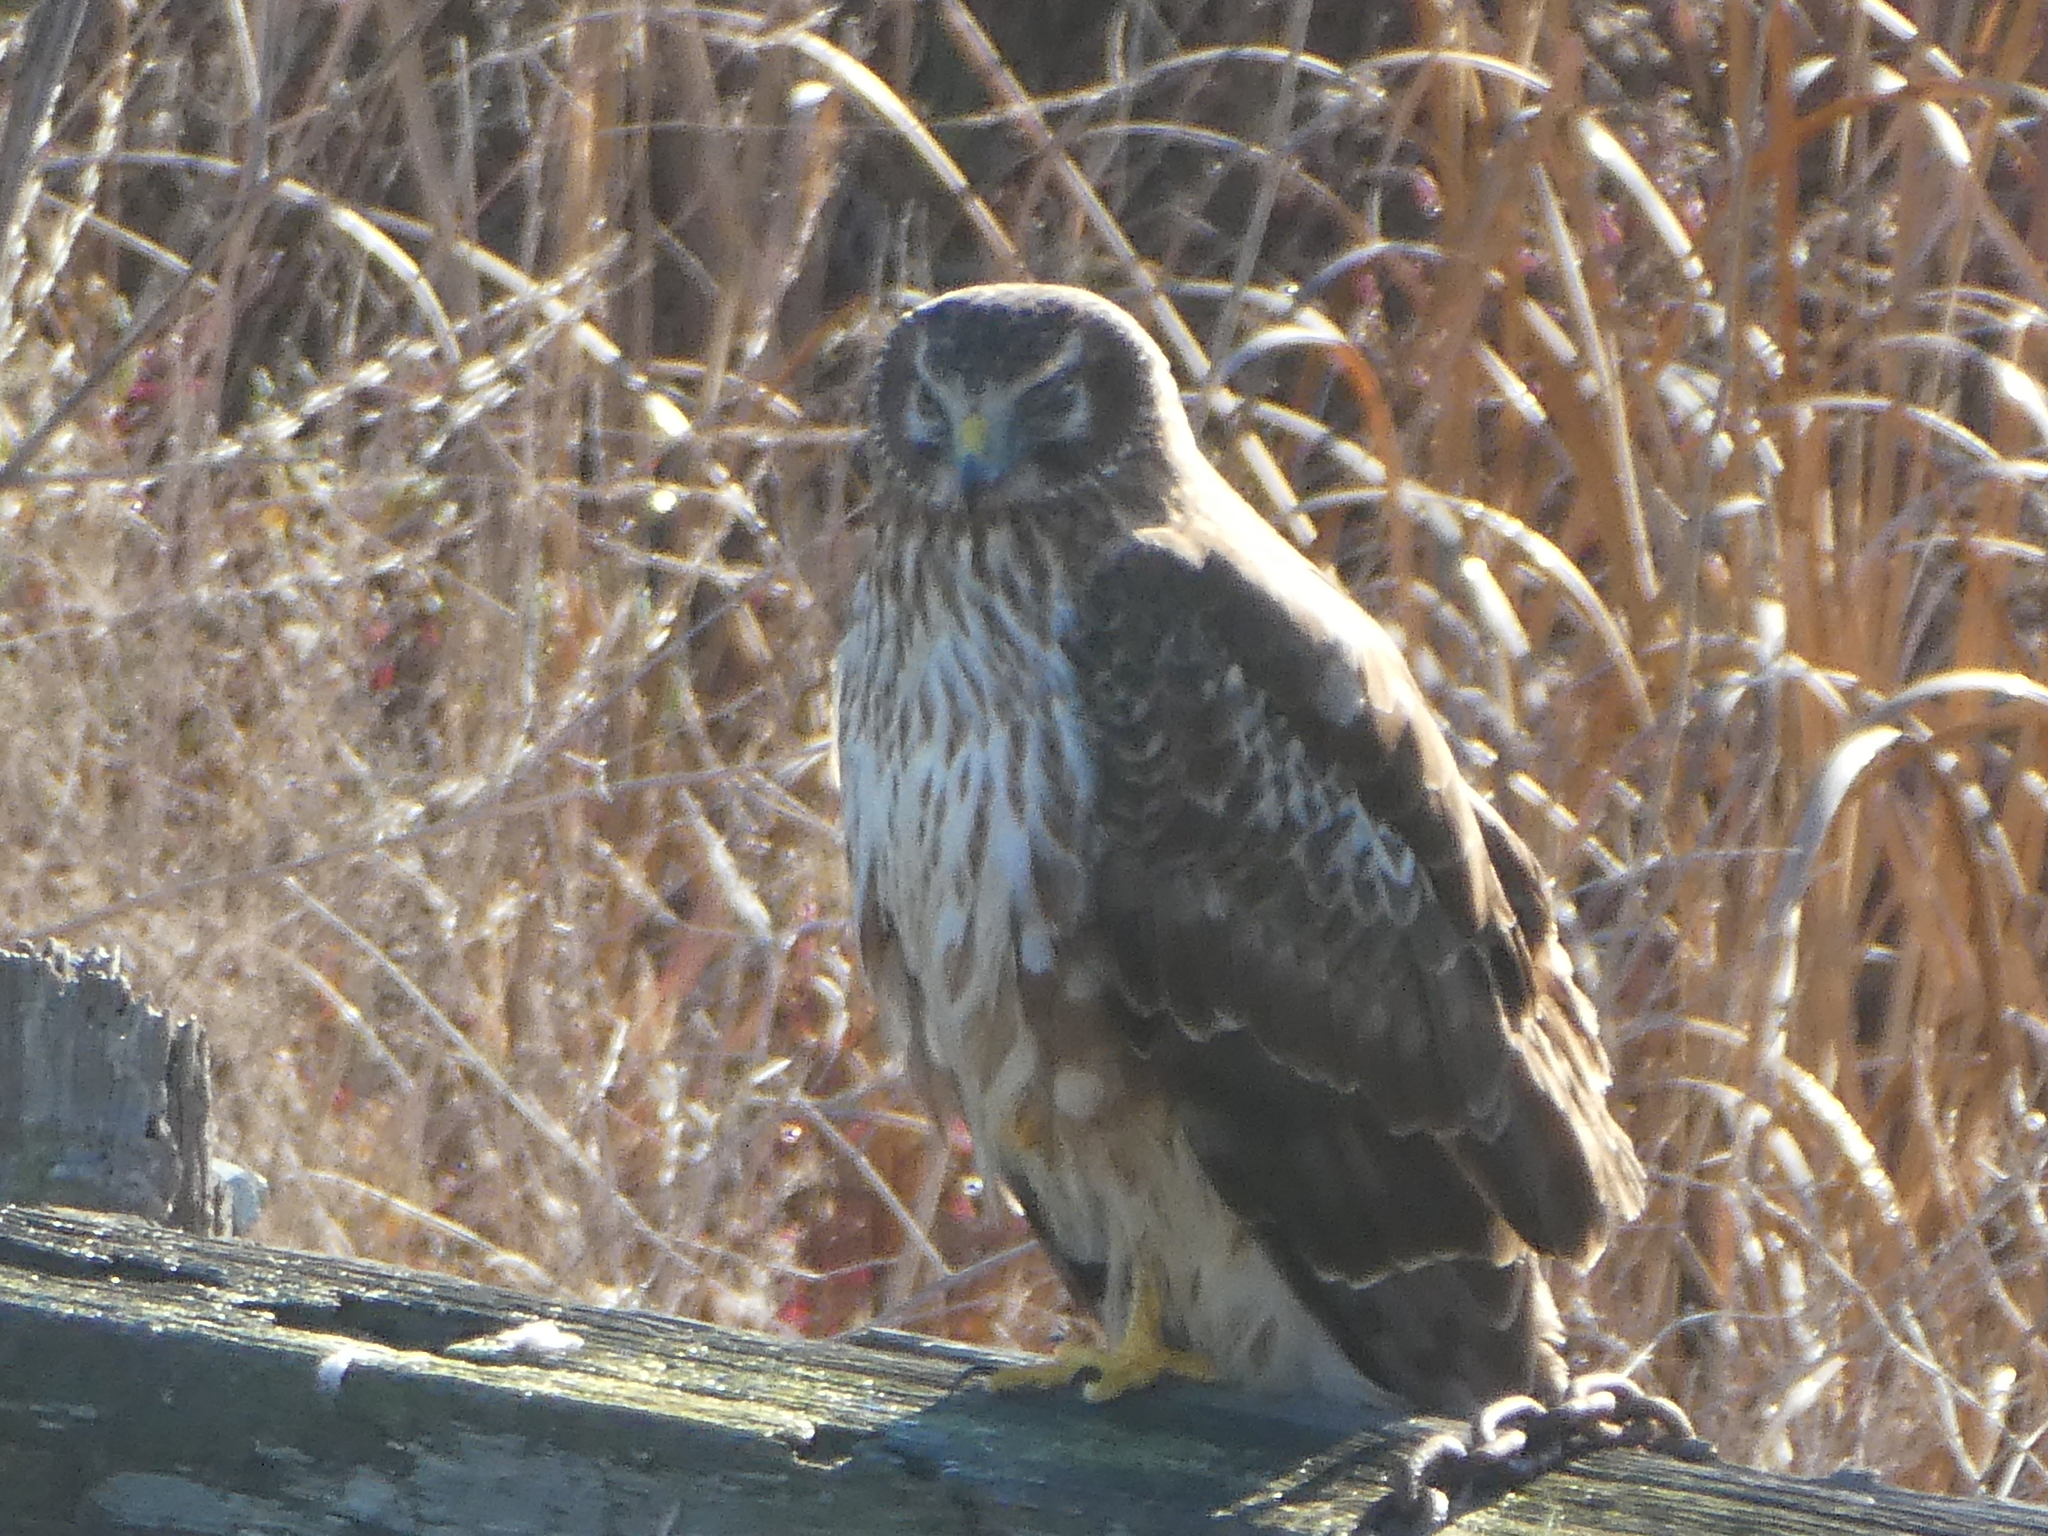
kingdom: Animalia
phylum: Chordata
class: Aves
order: Accipitriformes
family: Accipitridae
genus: Circus
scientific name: Circus cyaneus
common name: Hen harrier
